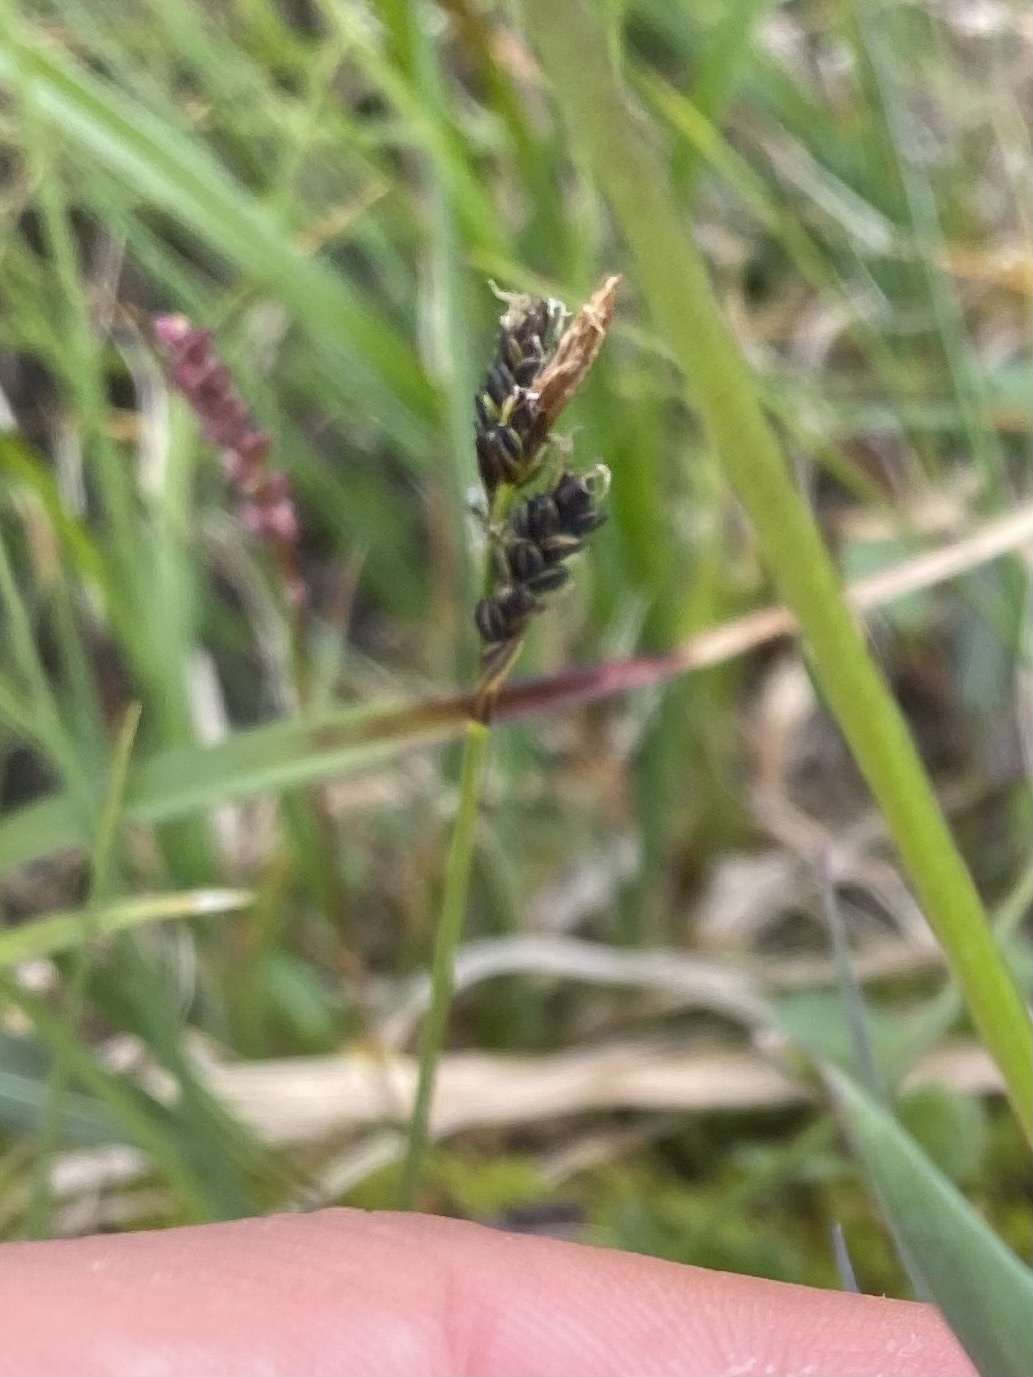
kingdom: Plantae
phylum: Tracheophyta
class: Liliopsida
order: Poales
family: Cyperaceae
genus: Carex
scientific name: Carex bigelowii
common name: Stiff sedge
